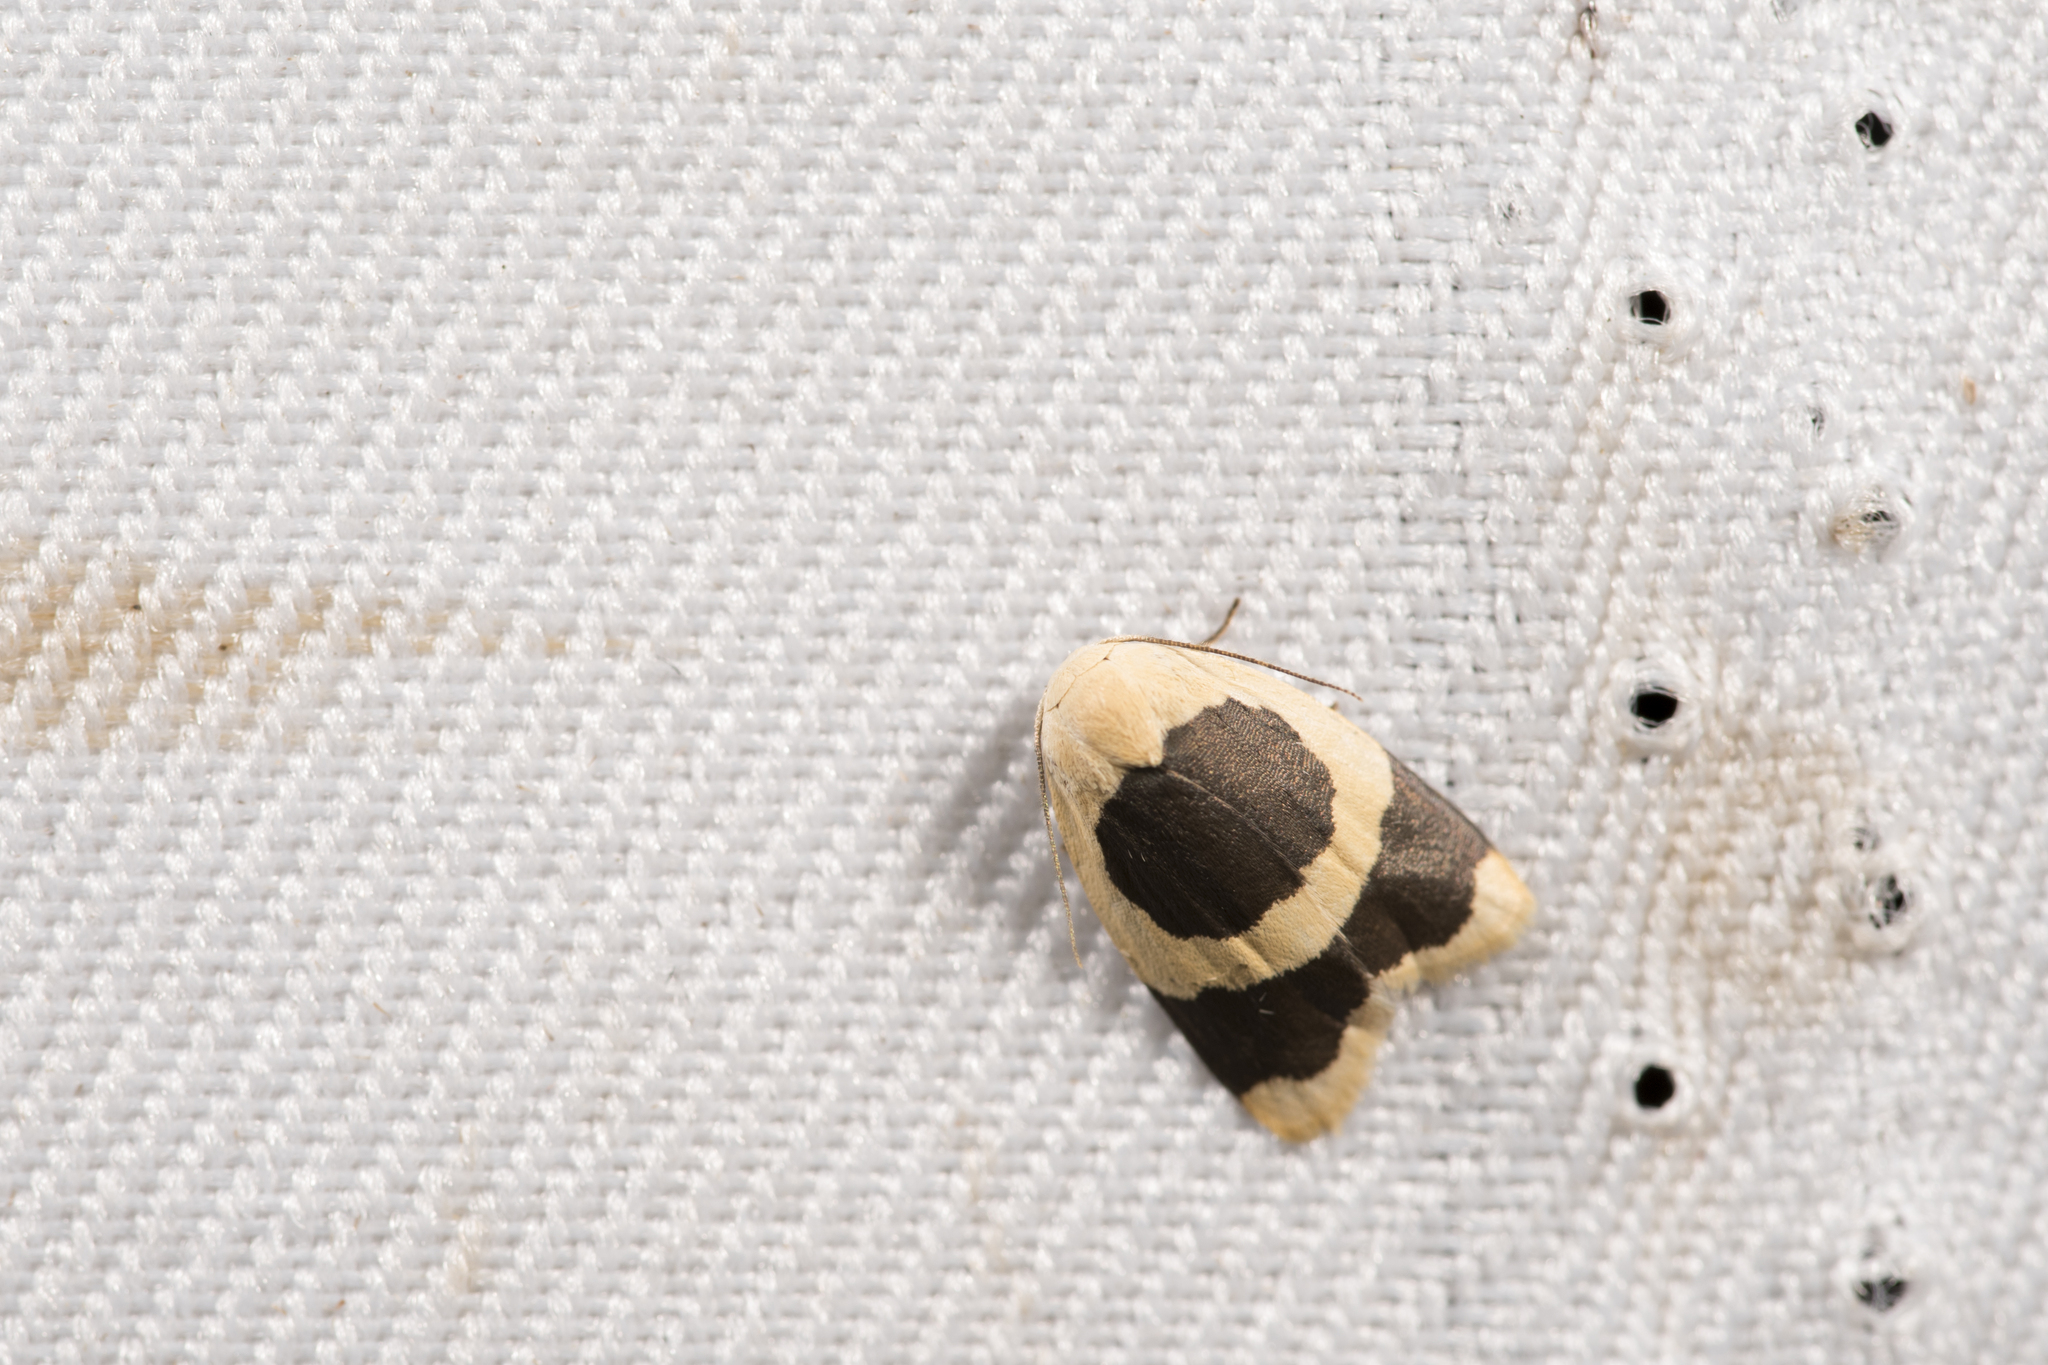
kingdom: Animalia
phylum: Arthropoda
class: Insecta
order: Lepidoptera
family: Erebidae
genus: Garudinia
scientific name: Garudinia taioana
